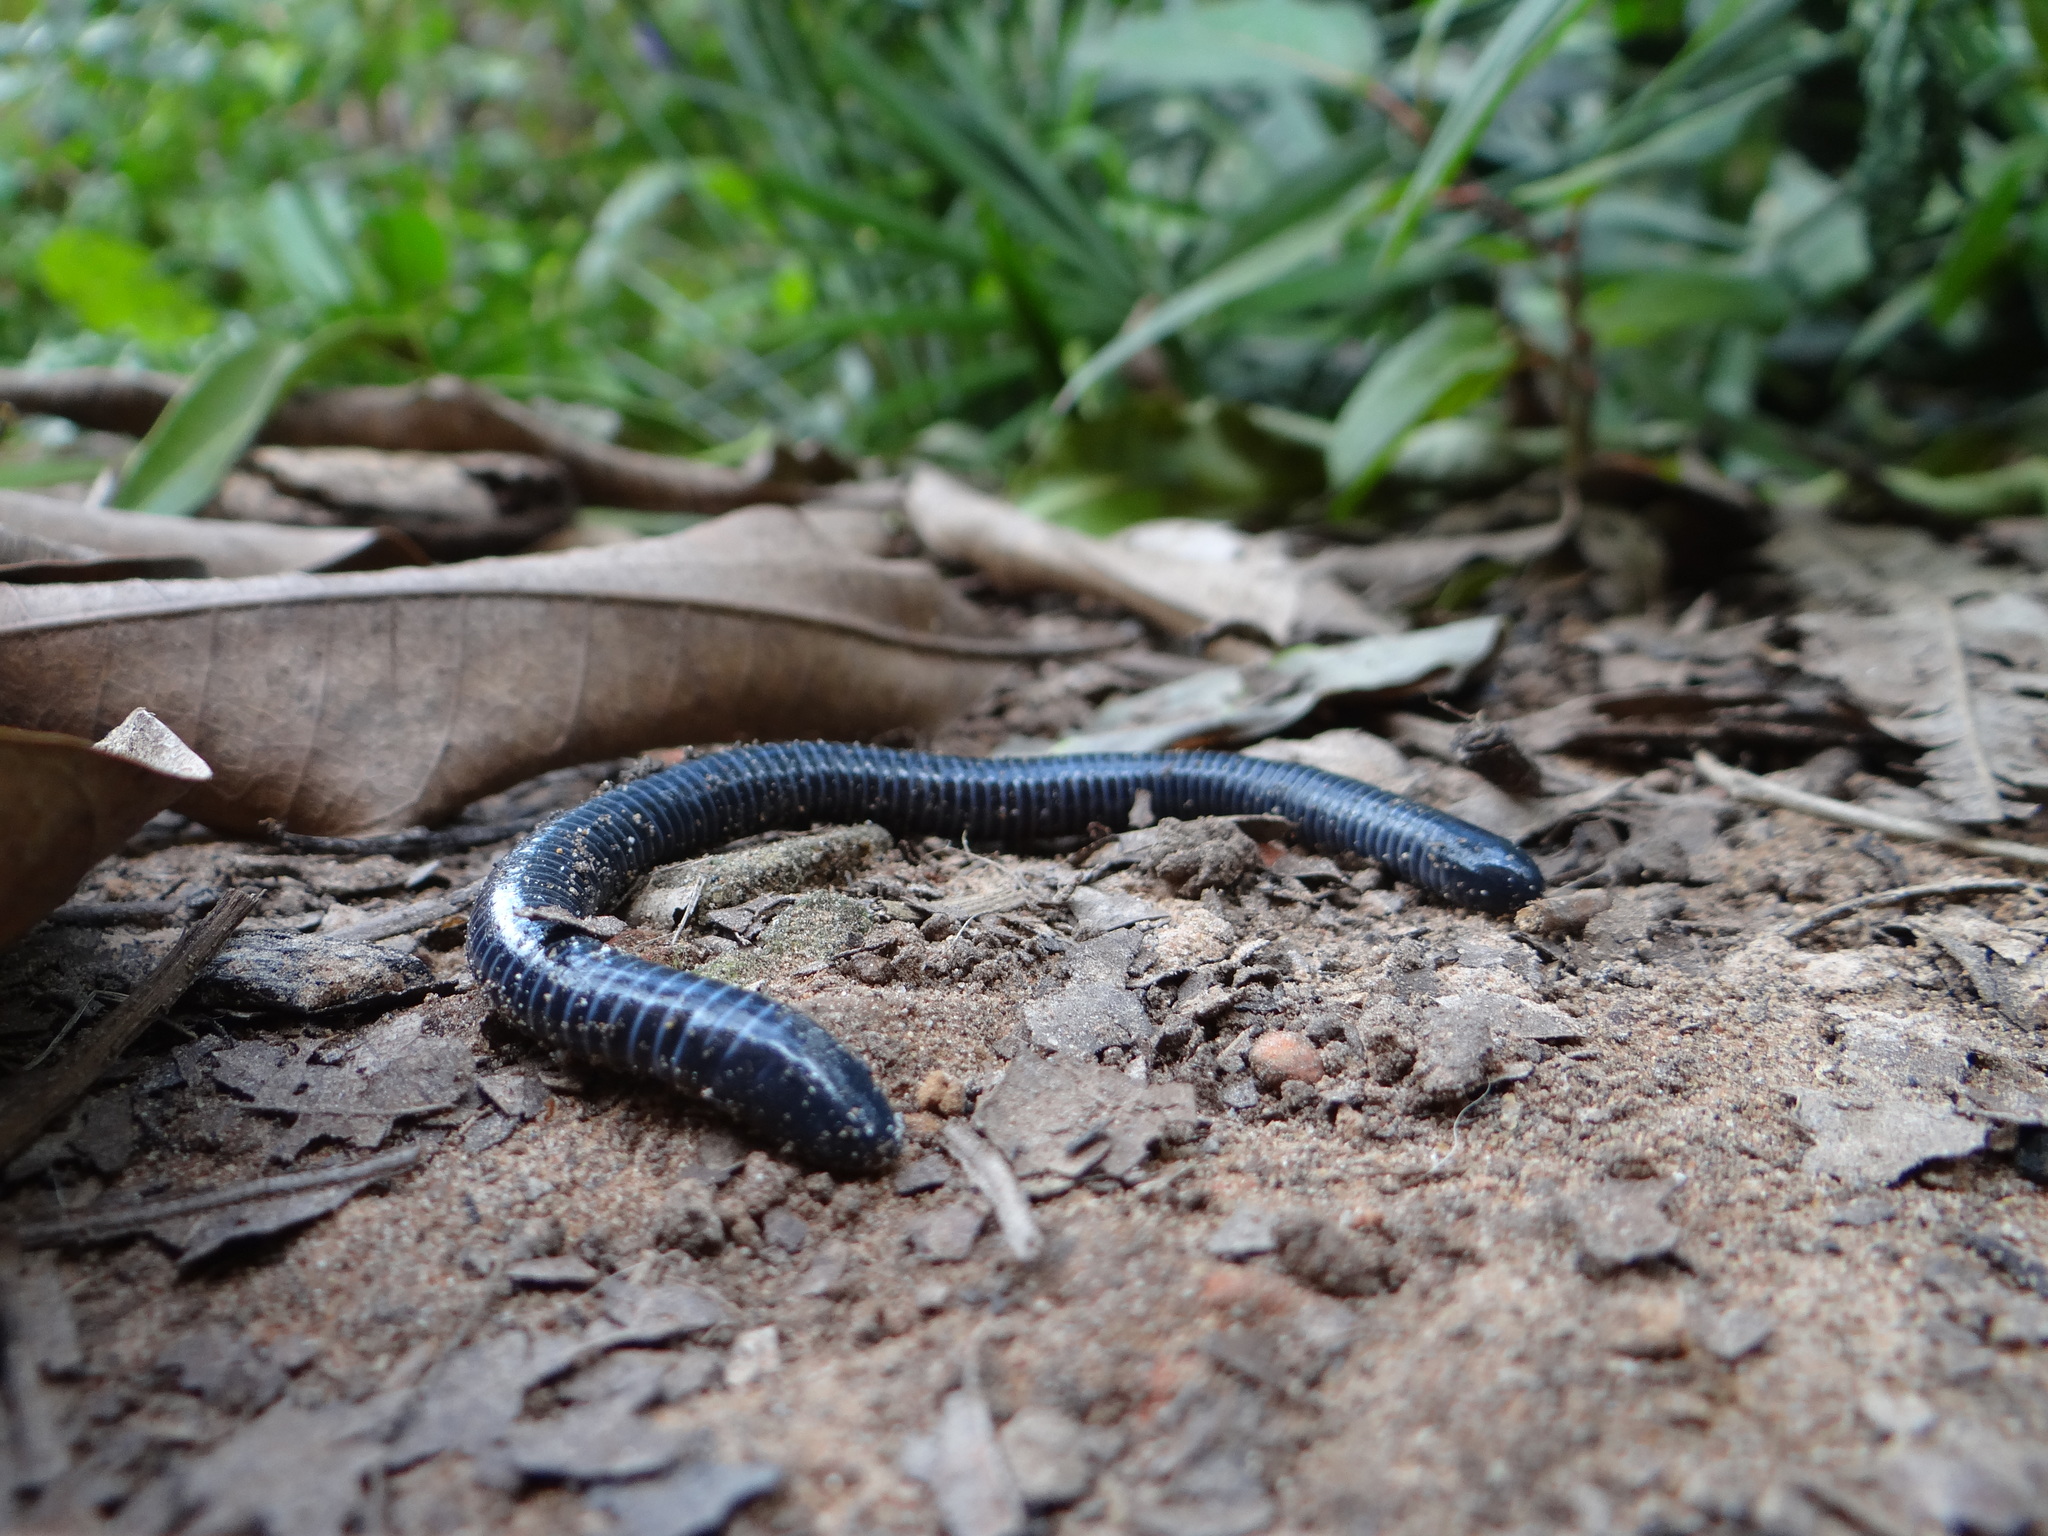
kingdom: Animalia
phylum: Chordata
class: Amphibia
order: Gymnophiona
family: Siphonopidae
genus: Siphonops
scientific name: Siphonops annulatus
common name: Ringed caecilia
